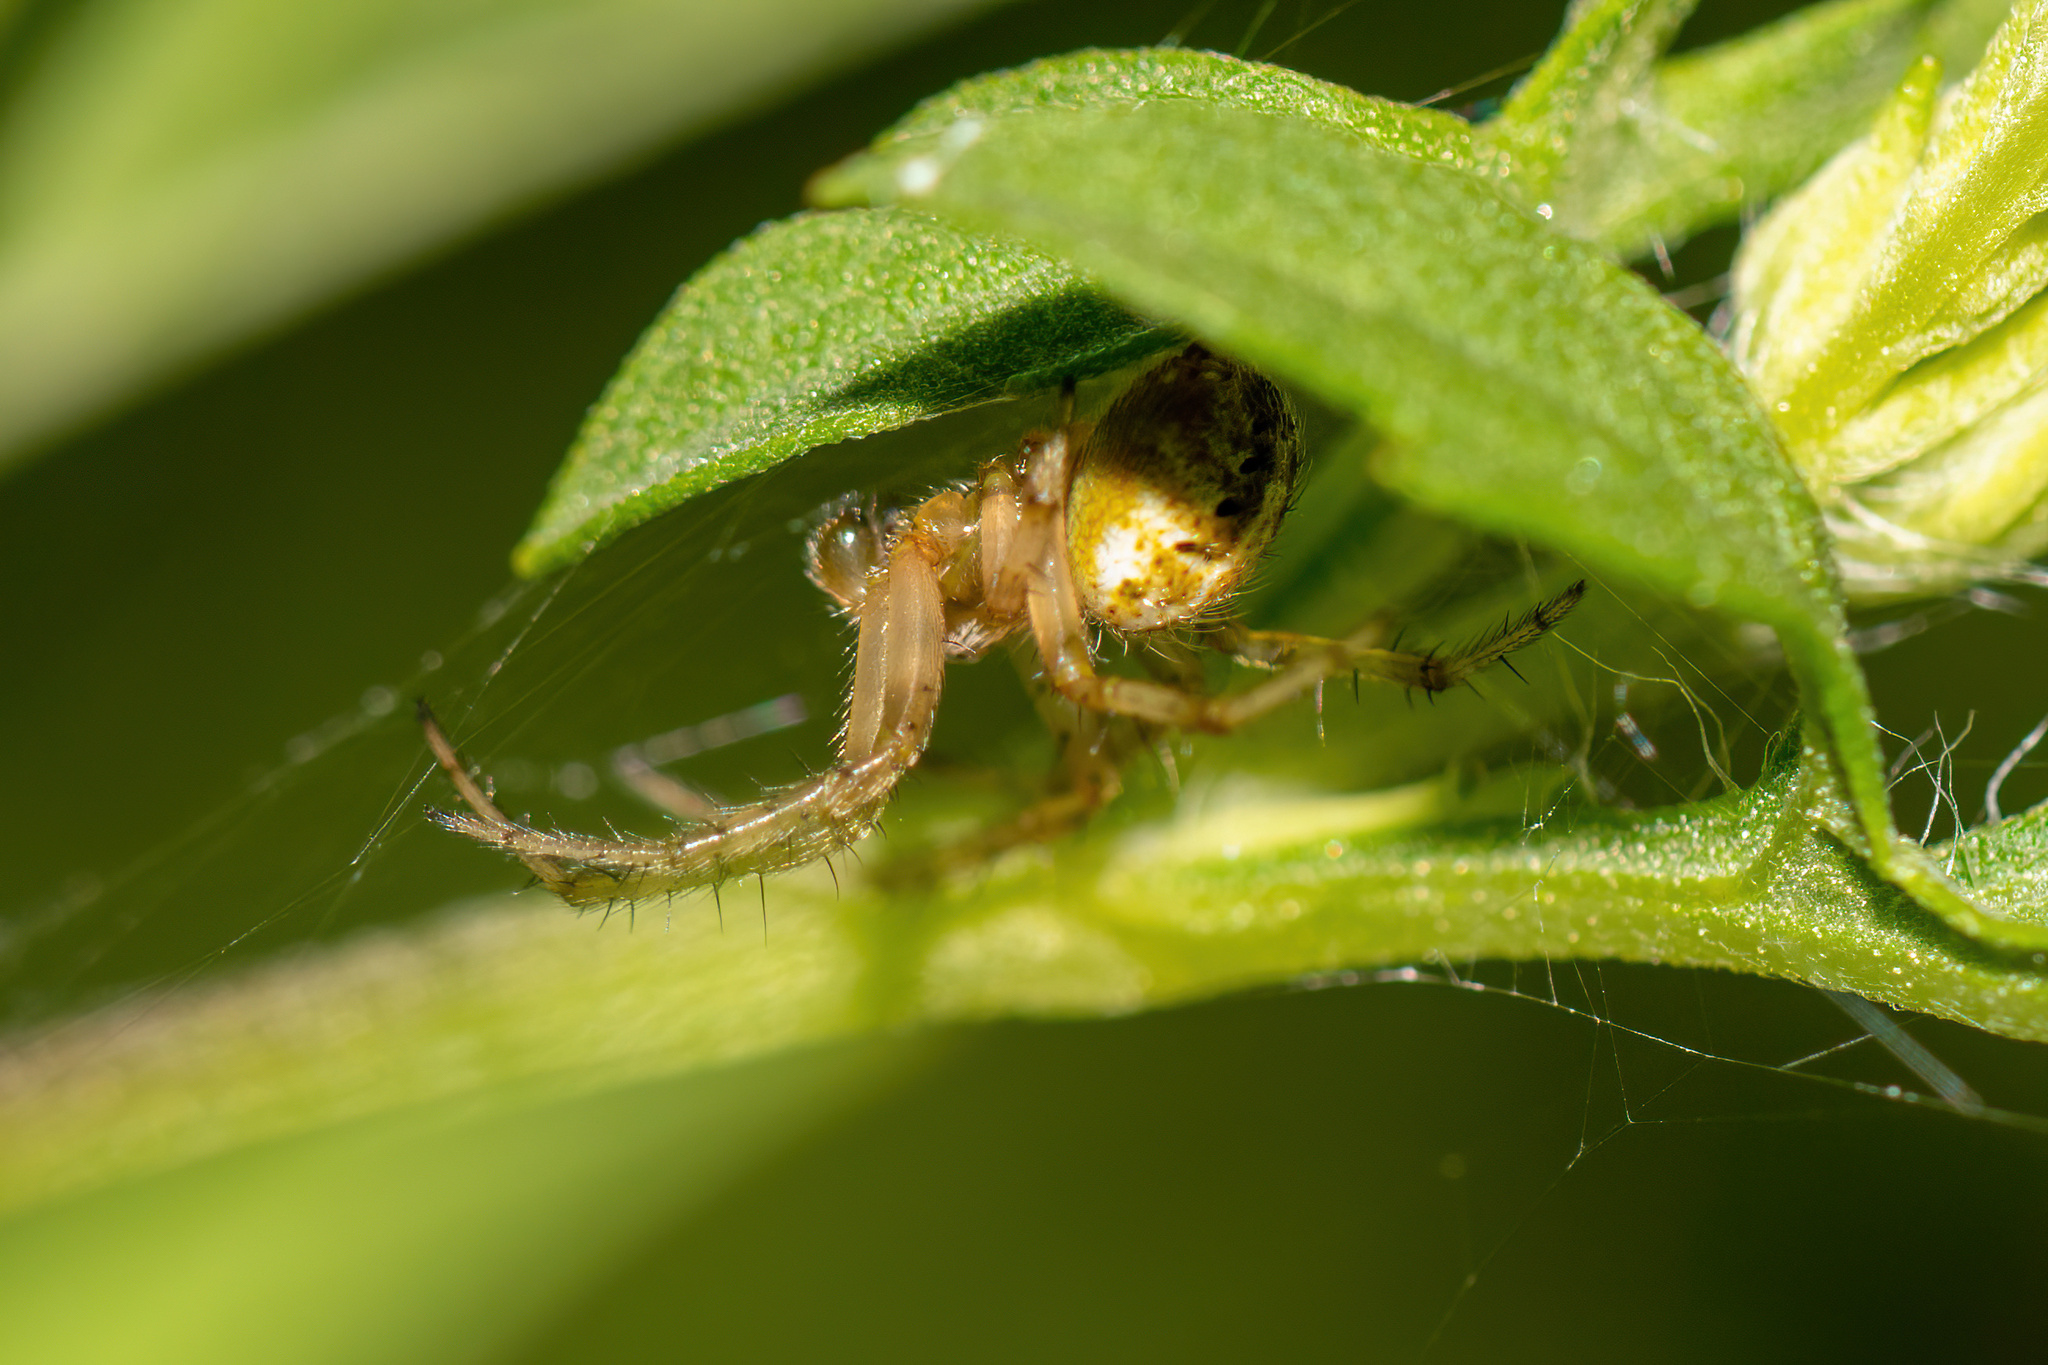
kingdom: Animalia
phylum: Arthropoda
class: Arachnida
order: Araneae
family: Araneidae
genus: Neoscona
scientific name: Neoscona arabesca
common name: Orb weavers
